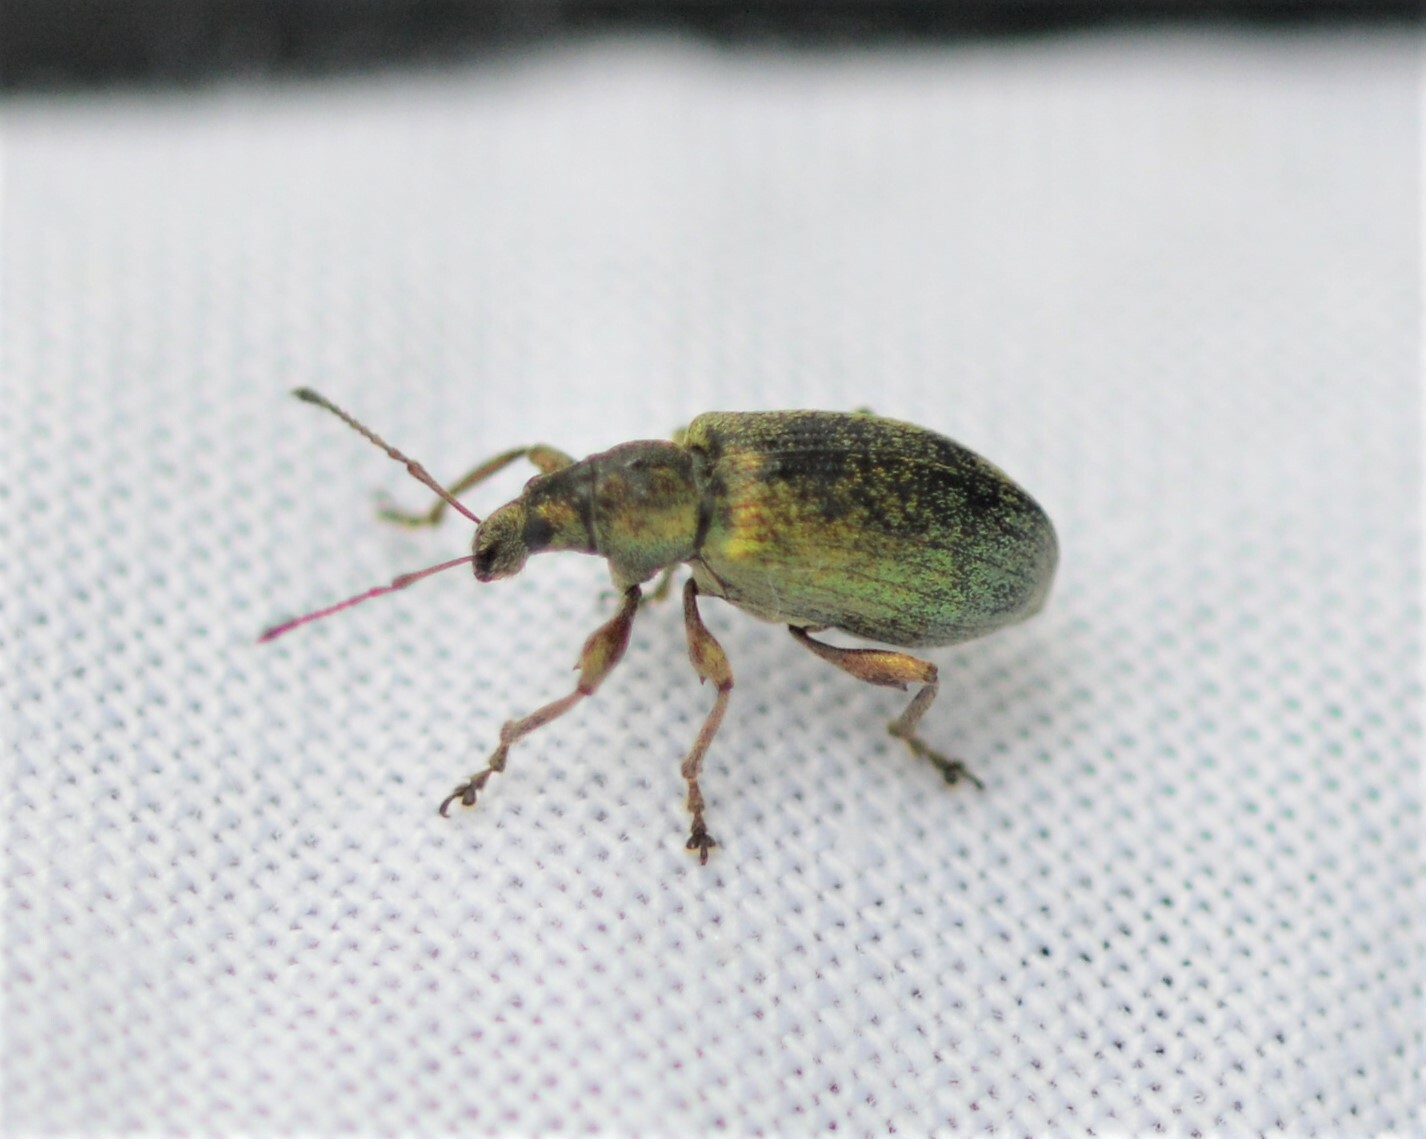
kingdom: Animalia
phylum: Arthropoda
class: Insecta
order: Coleoptera
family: Curculionidae
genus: Phyllobius
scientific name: Phyllobius pomaceus
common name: Green nettle weevil
